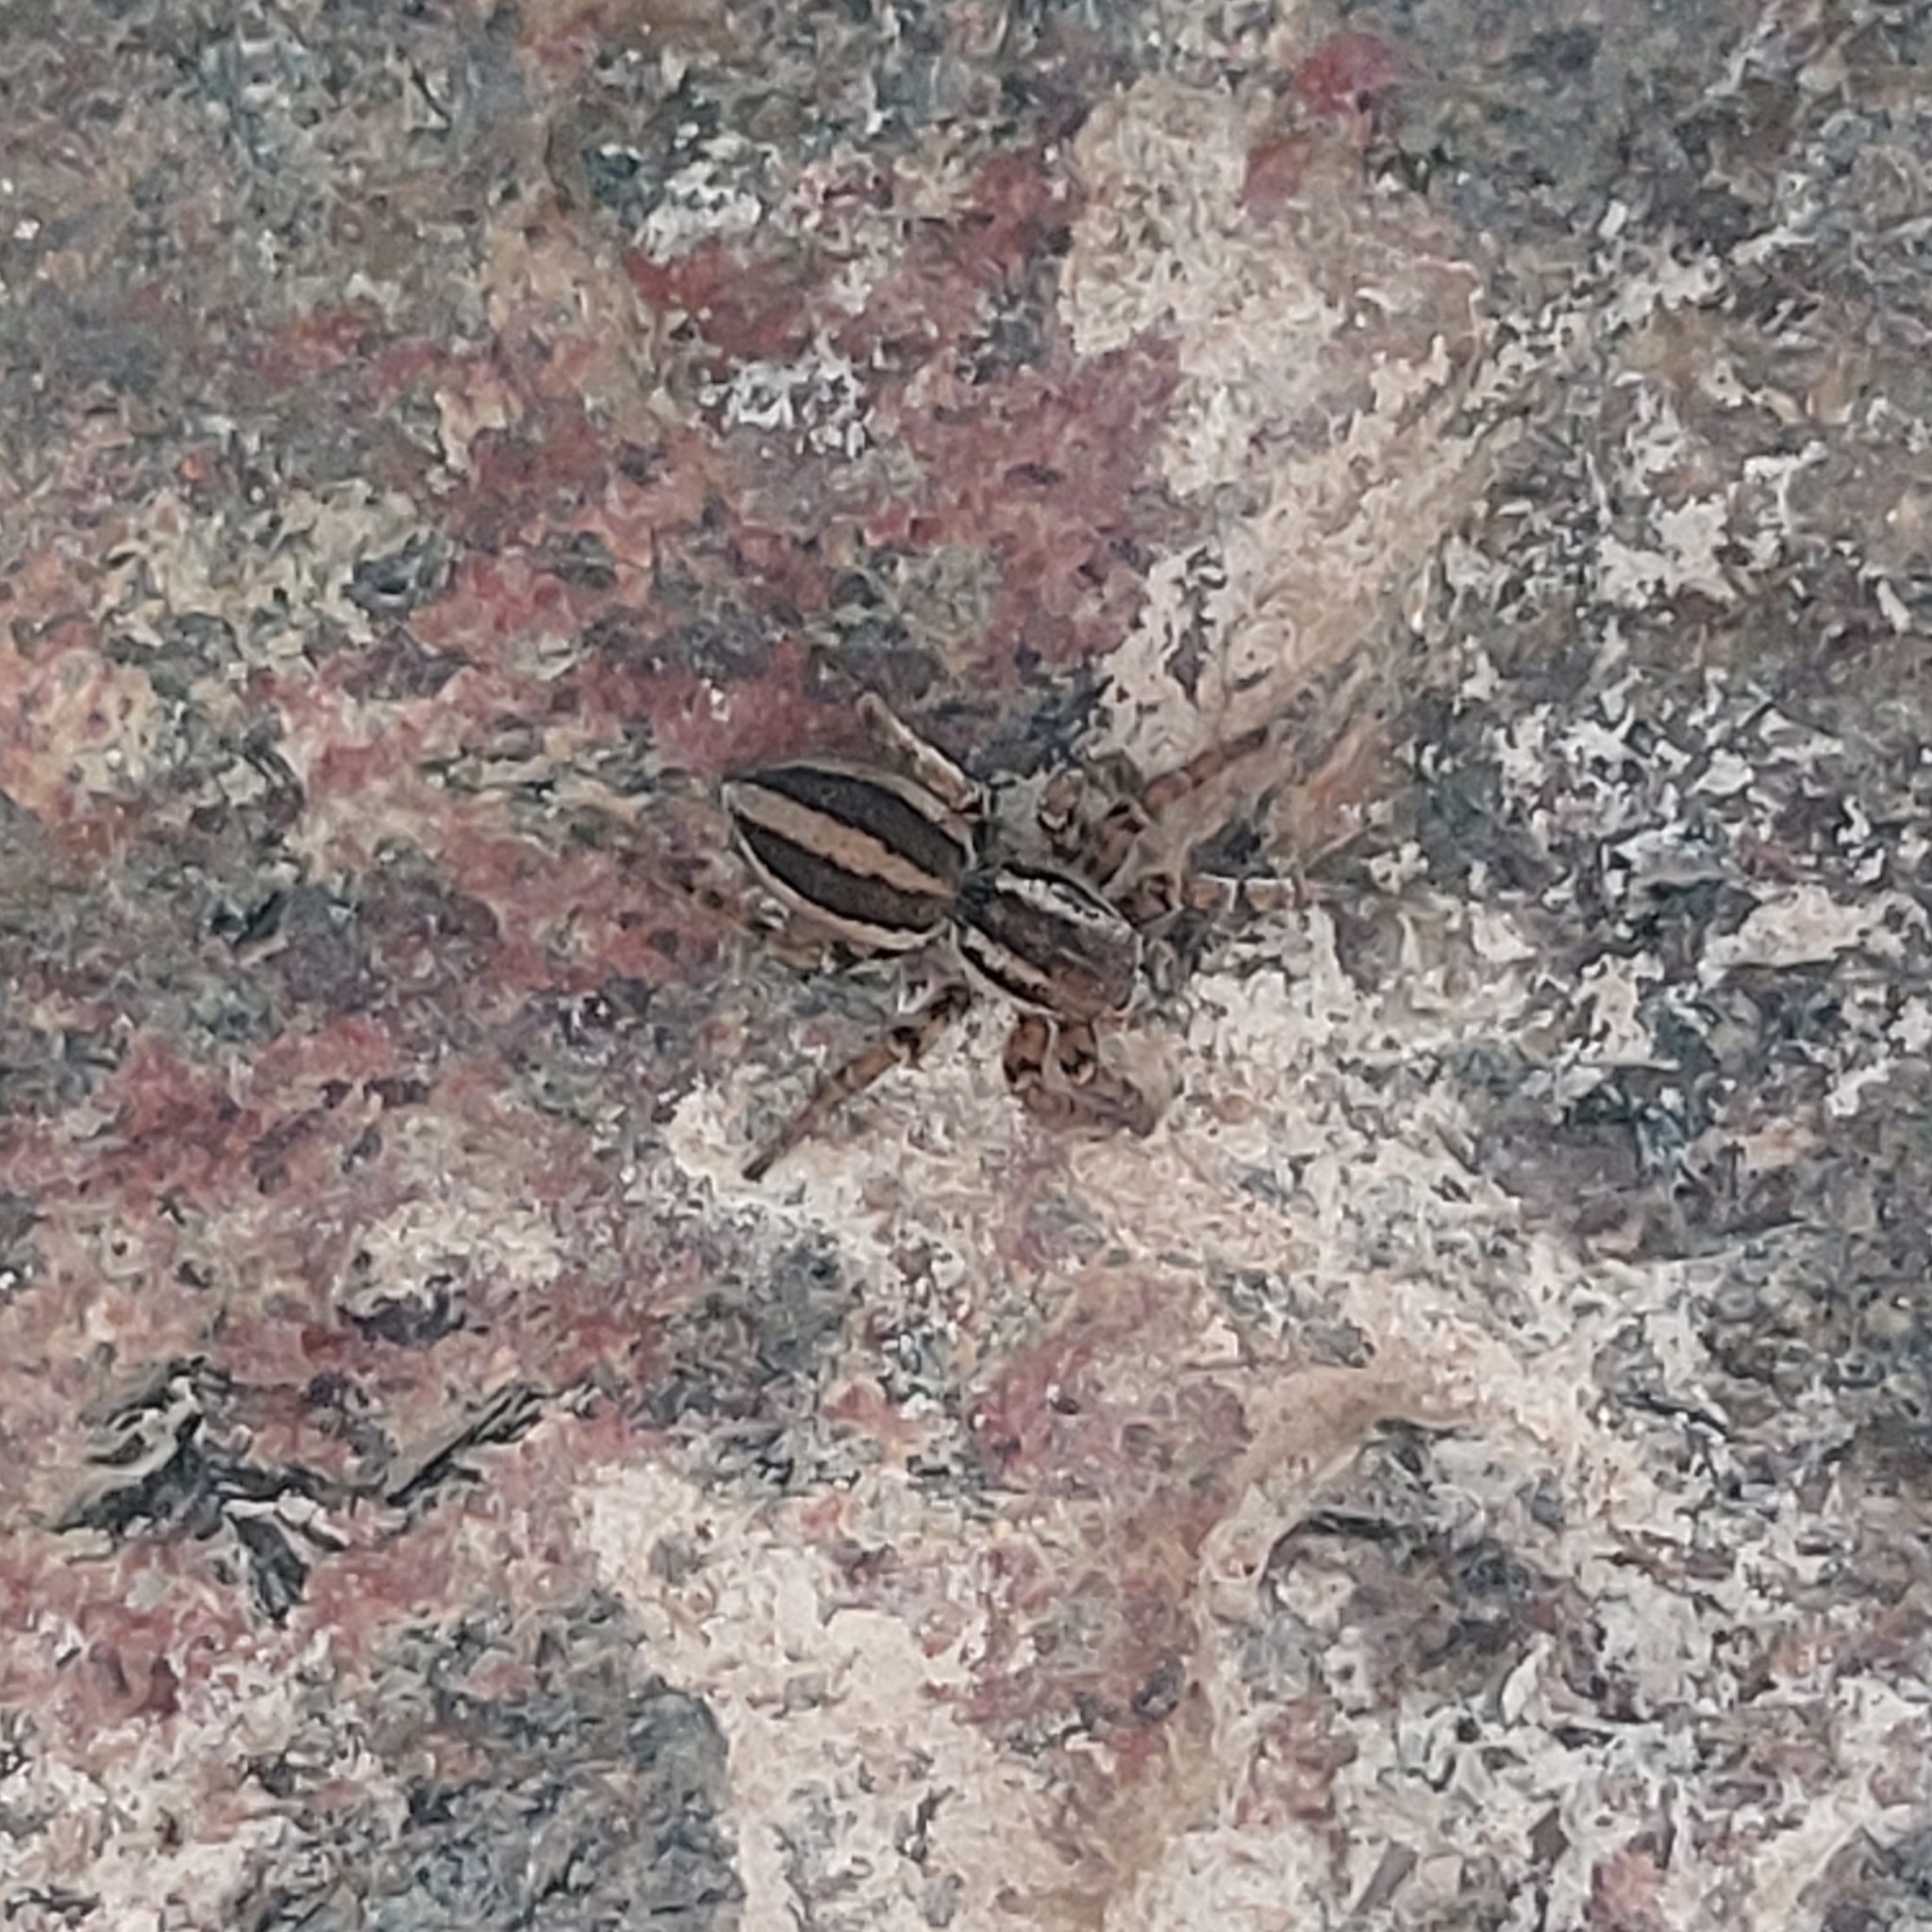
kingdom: Animalia
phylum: Arthropoda
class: Arachnida
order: Araneae
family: Salticidae
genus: Phlegra
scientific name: Phlegra fasciata
